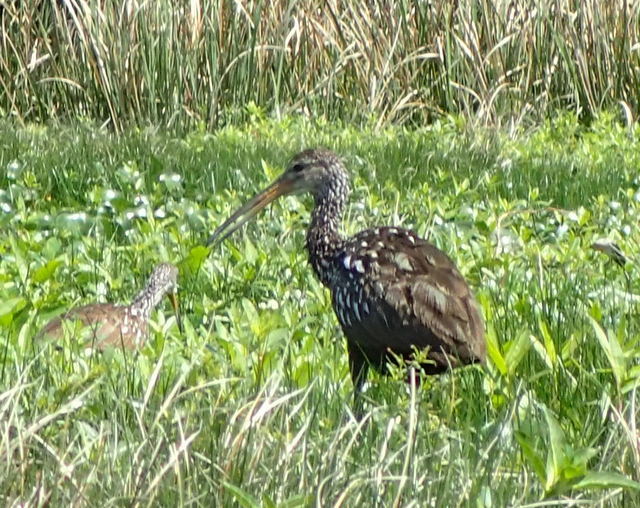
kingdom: Animalia
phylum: Chordata
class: Aves
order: Gruiformes
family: Aramidae
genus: Aramus
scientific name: Aramus guarauna
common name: Limpkin
